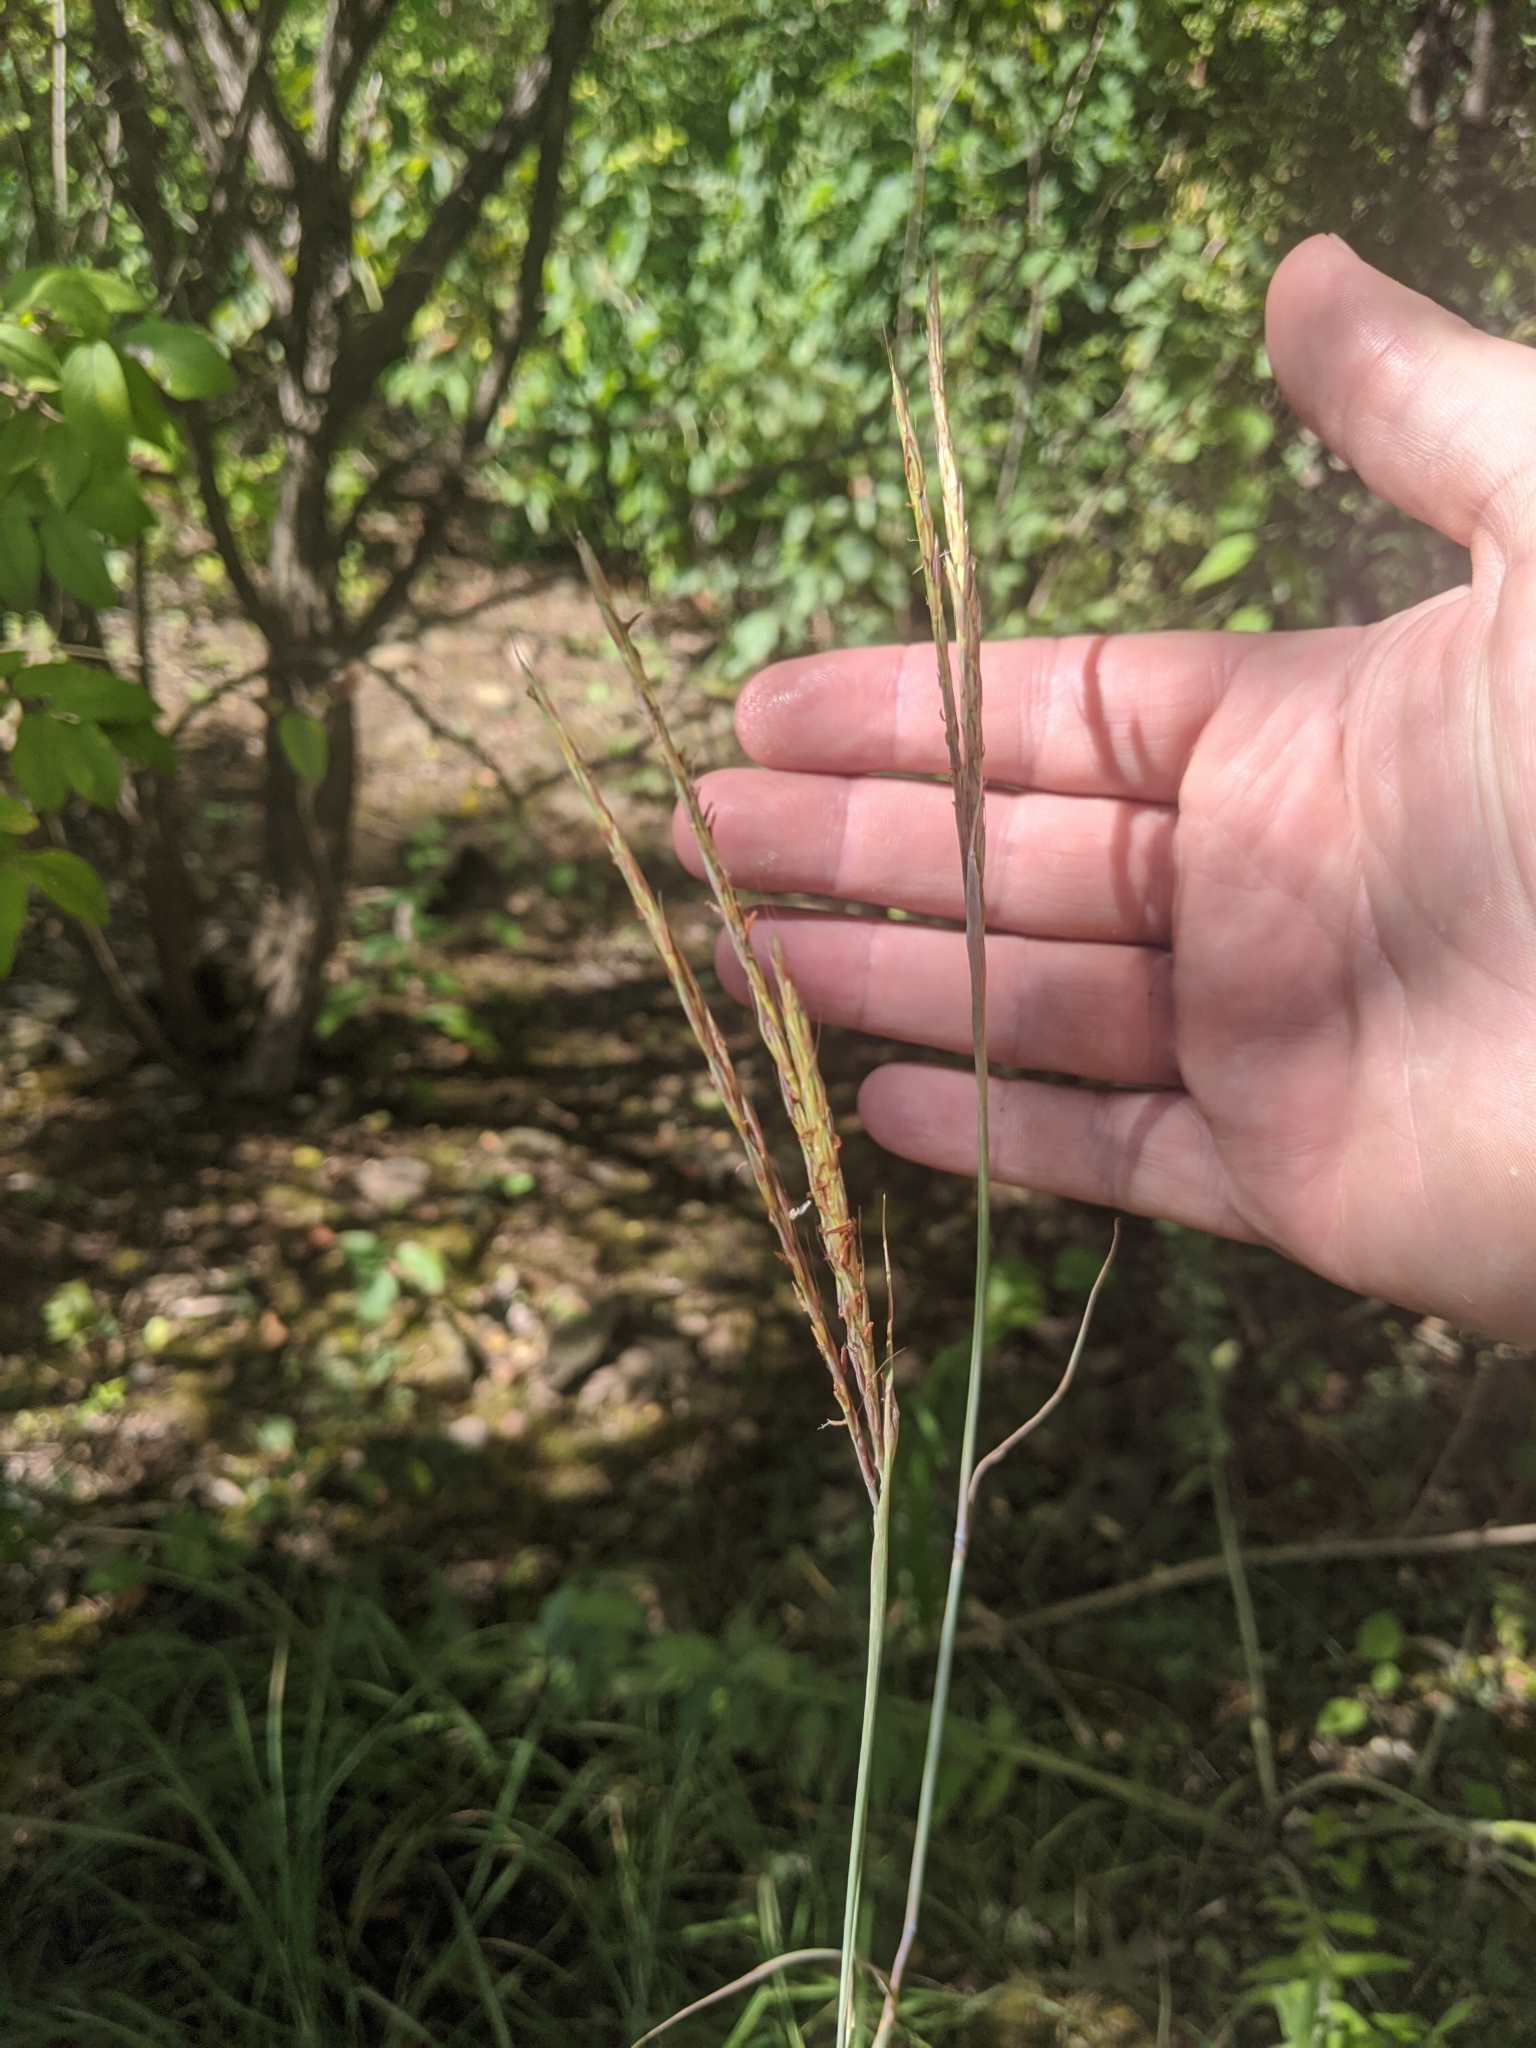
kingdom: Plantae
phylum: Tracheophyta
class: Liliopsida
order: Poales
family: Poaceae
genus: Andropogon
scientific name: Andropogon gerardi
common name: Big bluestem
